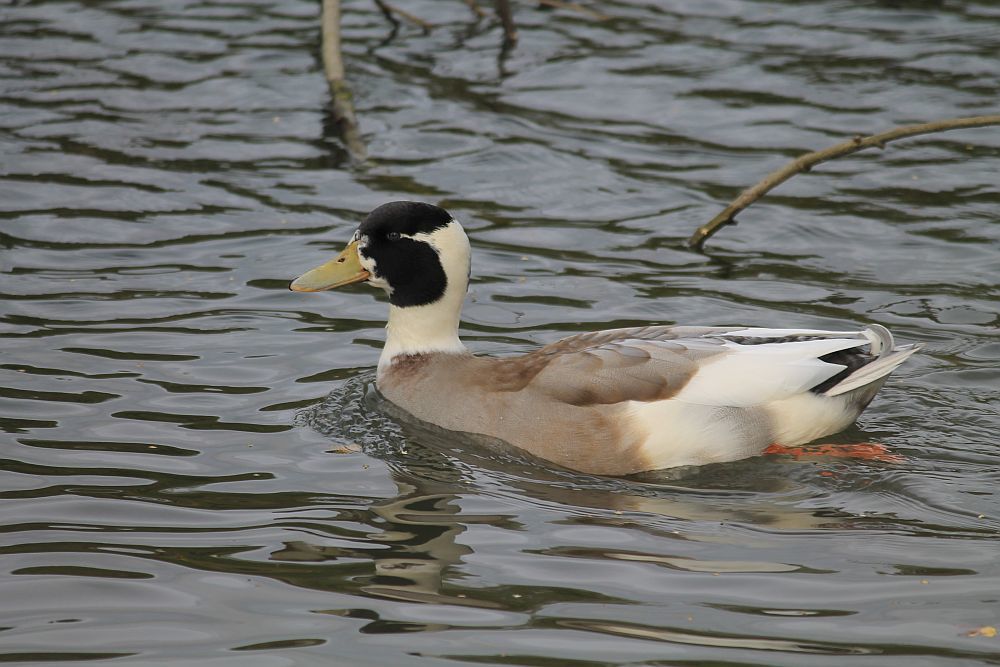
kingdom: Animalia
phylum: Chordata
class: Aves
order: Anseriformes
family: Anatidae
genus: Anas
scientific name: Anas platyrhynchos
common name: Mallard
